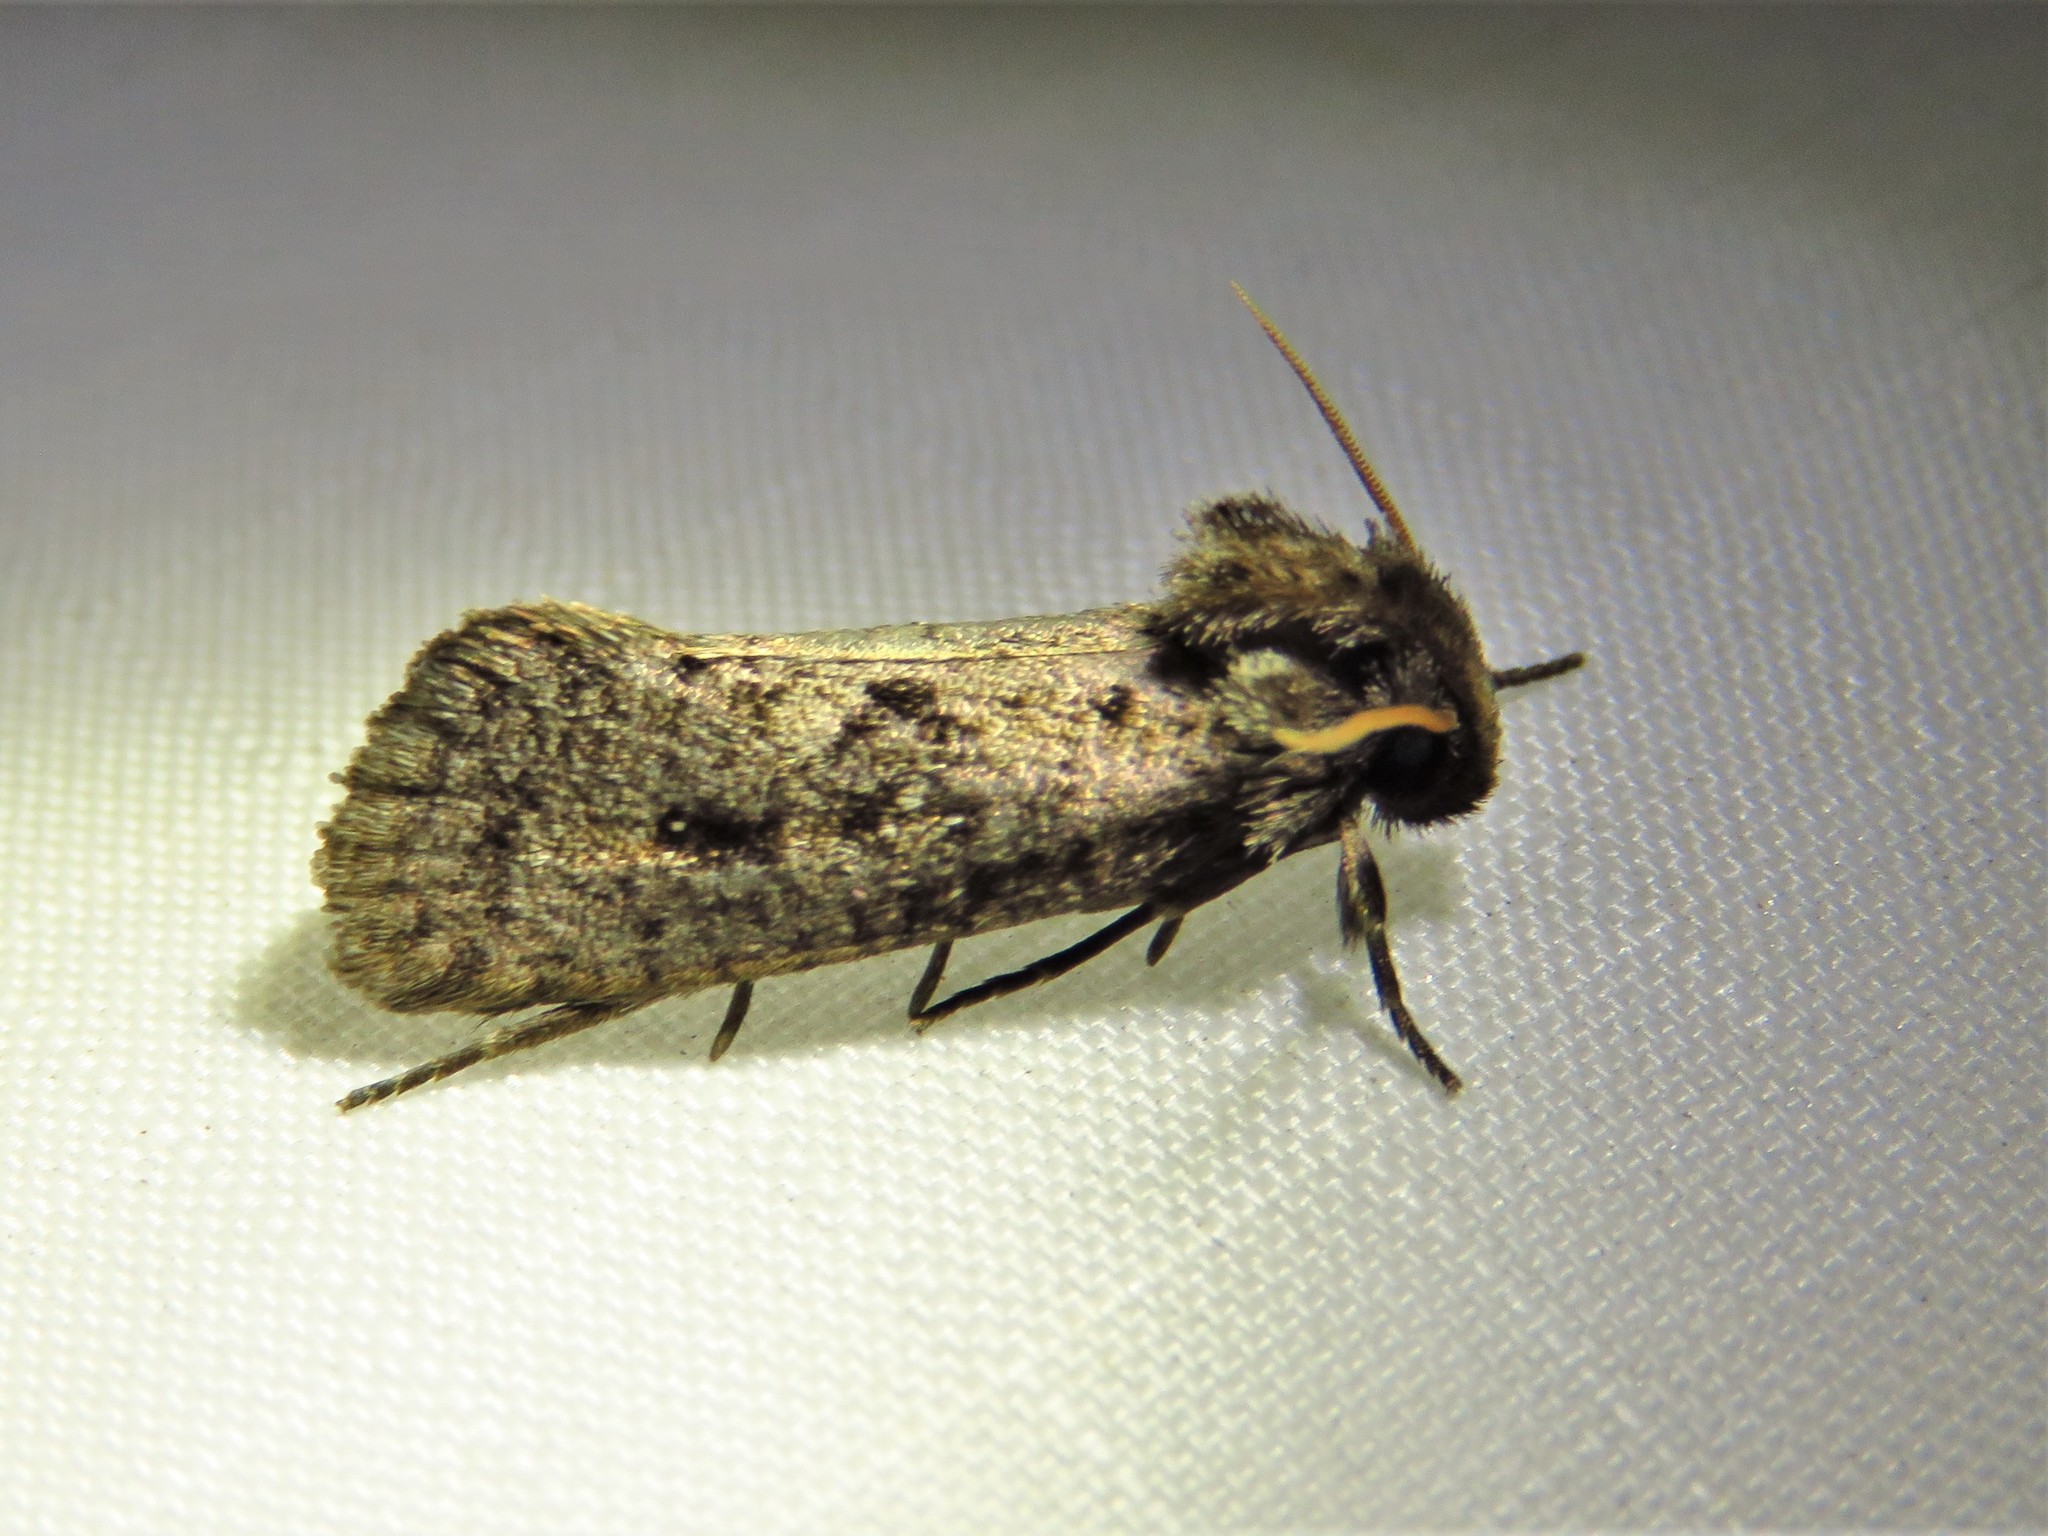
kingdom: Animalia
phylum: Arthropoda
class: Insecta
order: Lepidoptera
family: Tineidae
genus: Acrolophus
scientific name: Acrolophus popeanella
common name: Clemens' grass tubeworm moth
